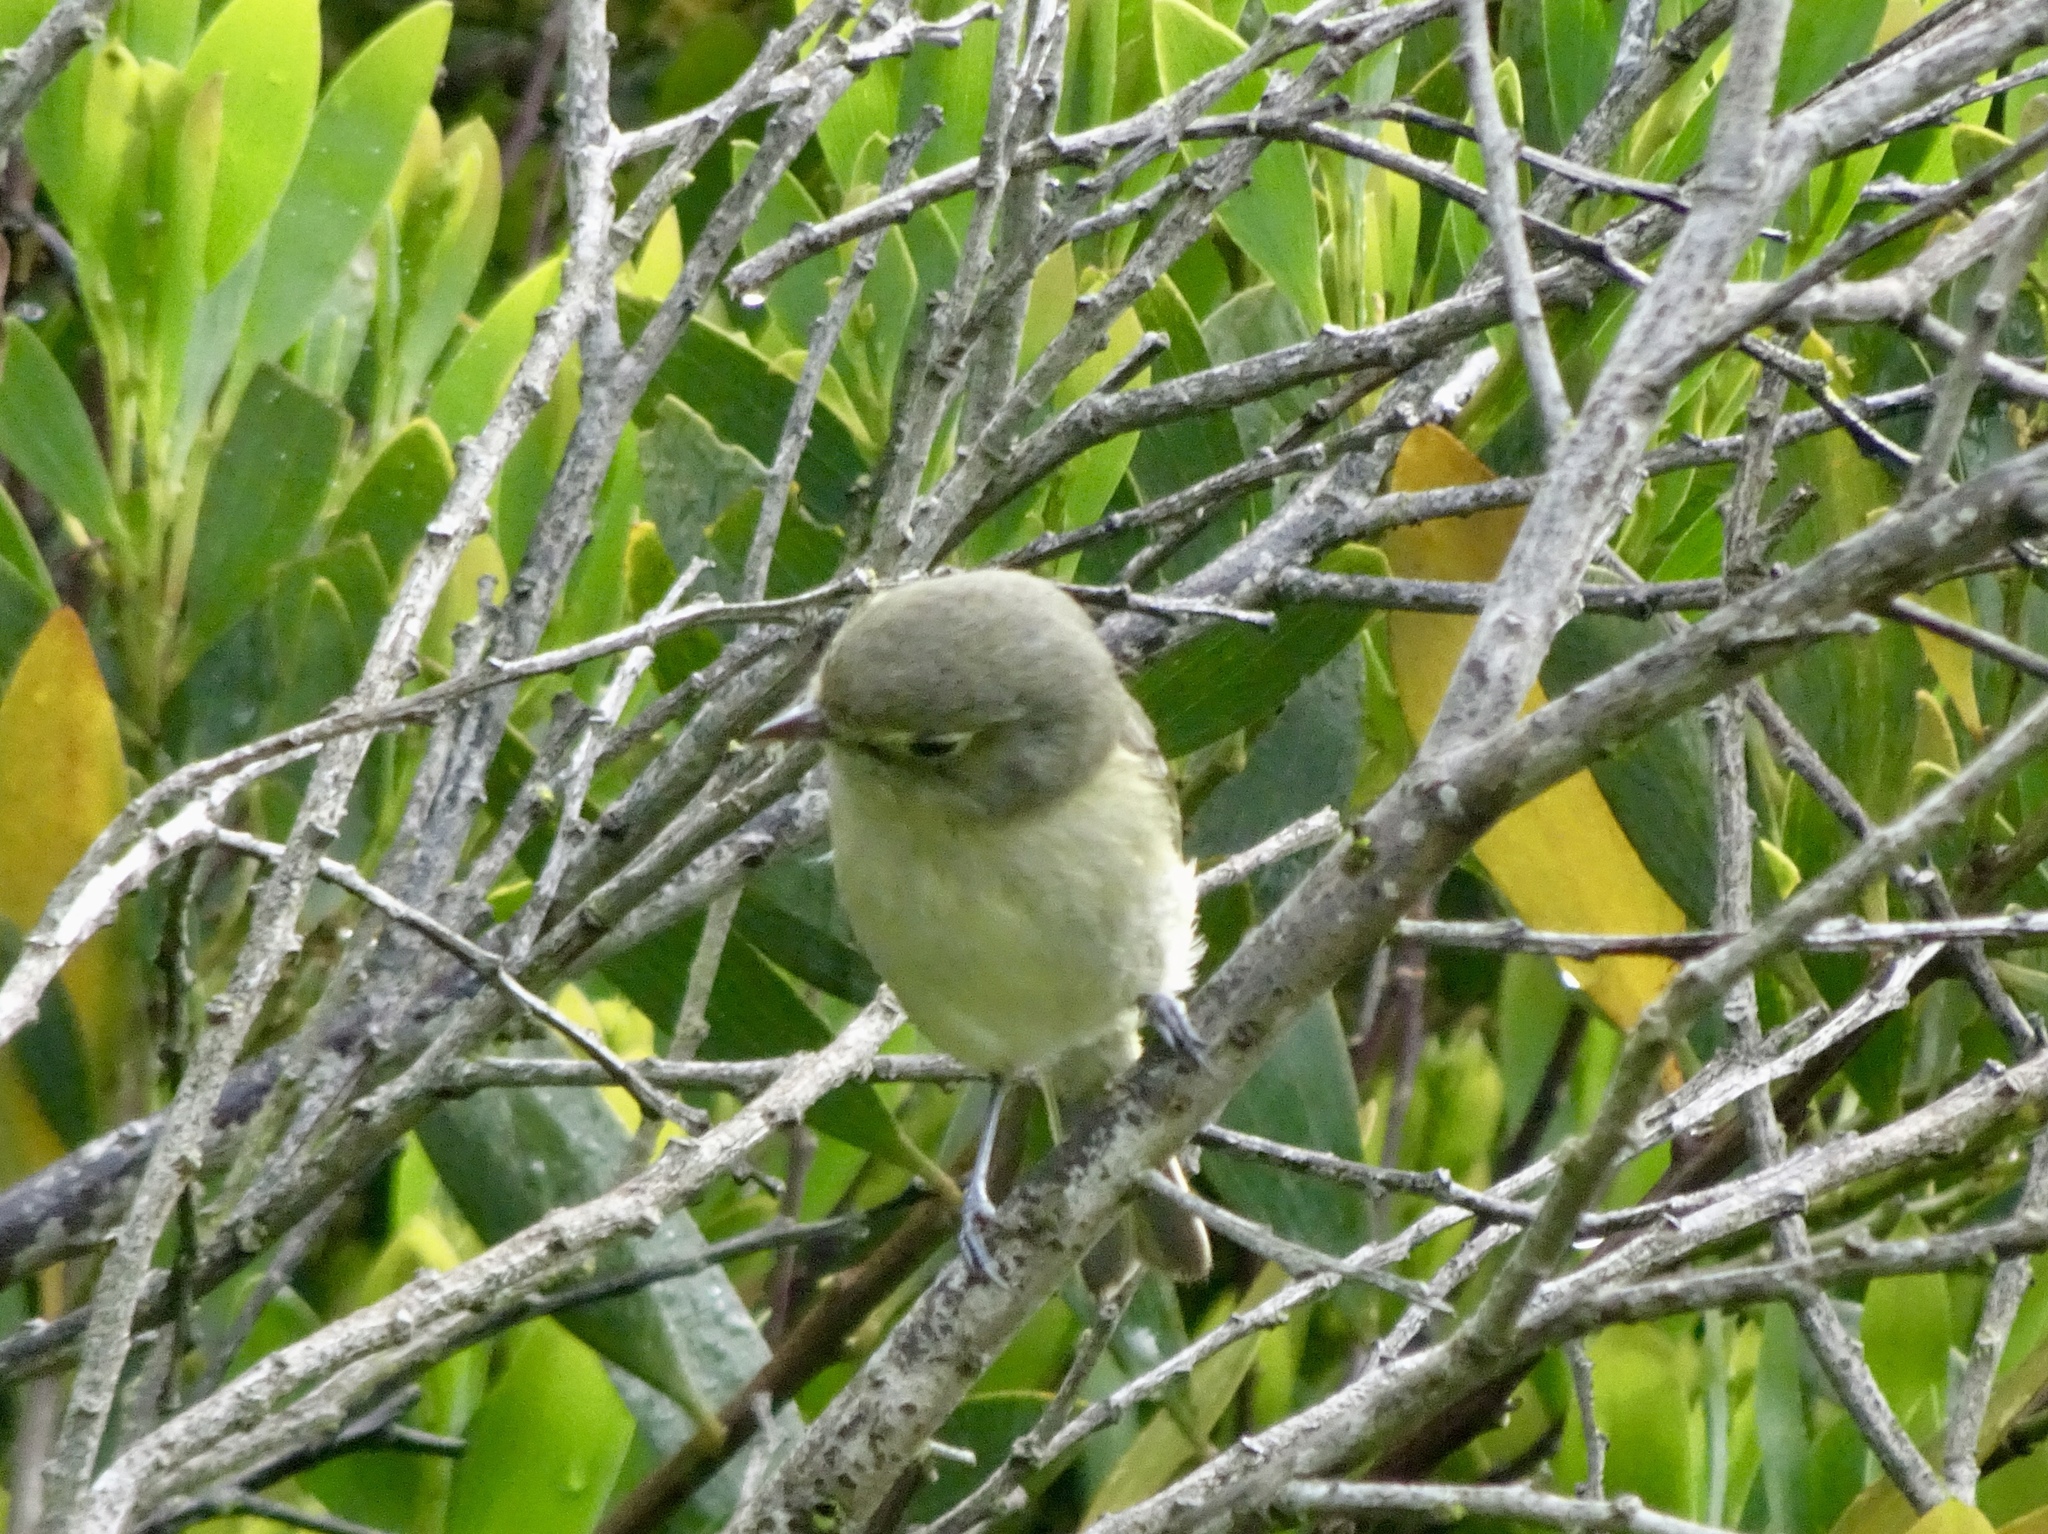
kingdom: Animalia
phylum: Chordata
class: Aves
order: Passeriformes
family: Vireonidae
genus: Vireo
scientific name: Vireo huttoni
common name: Hutton's vireo
